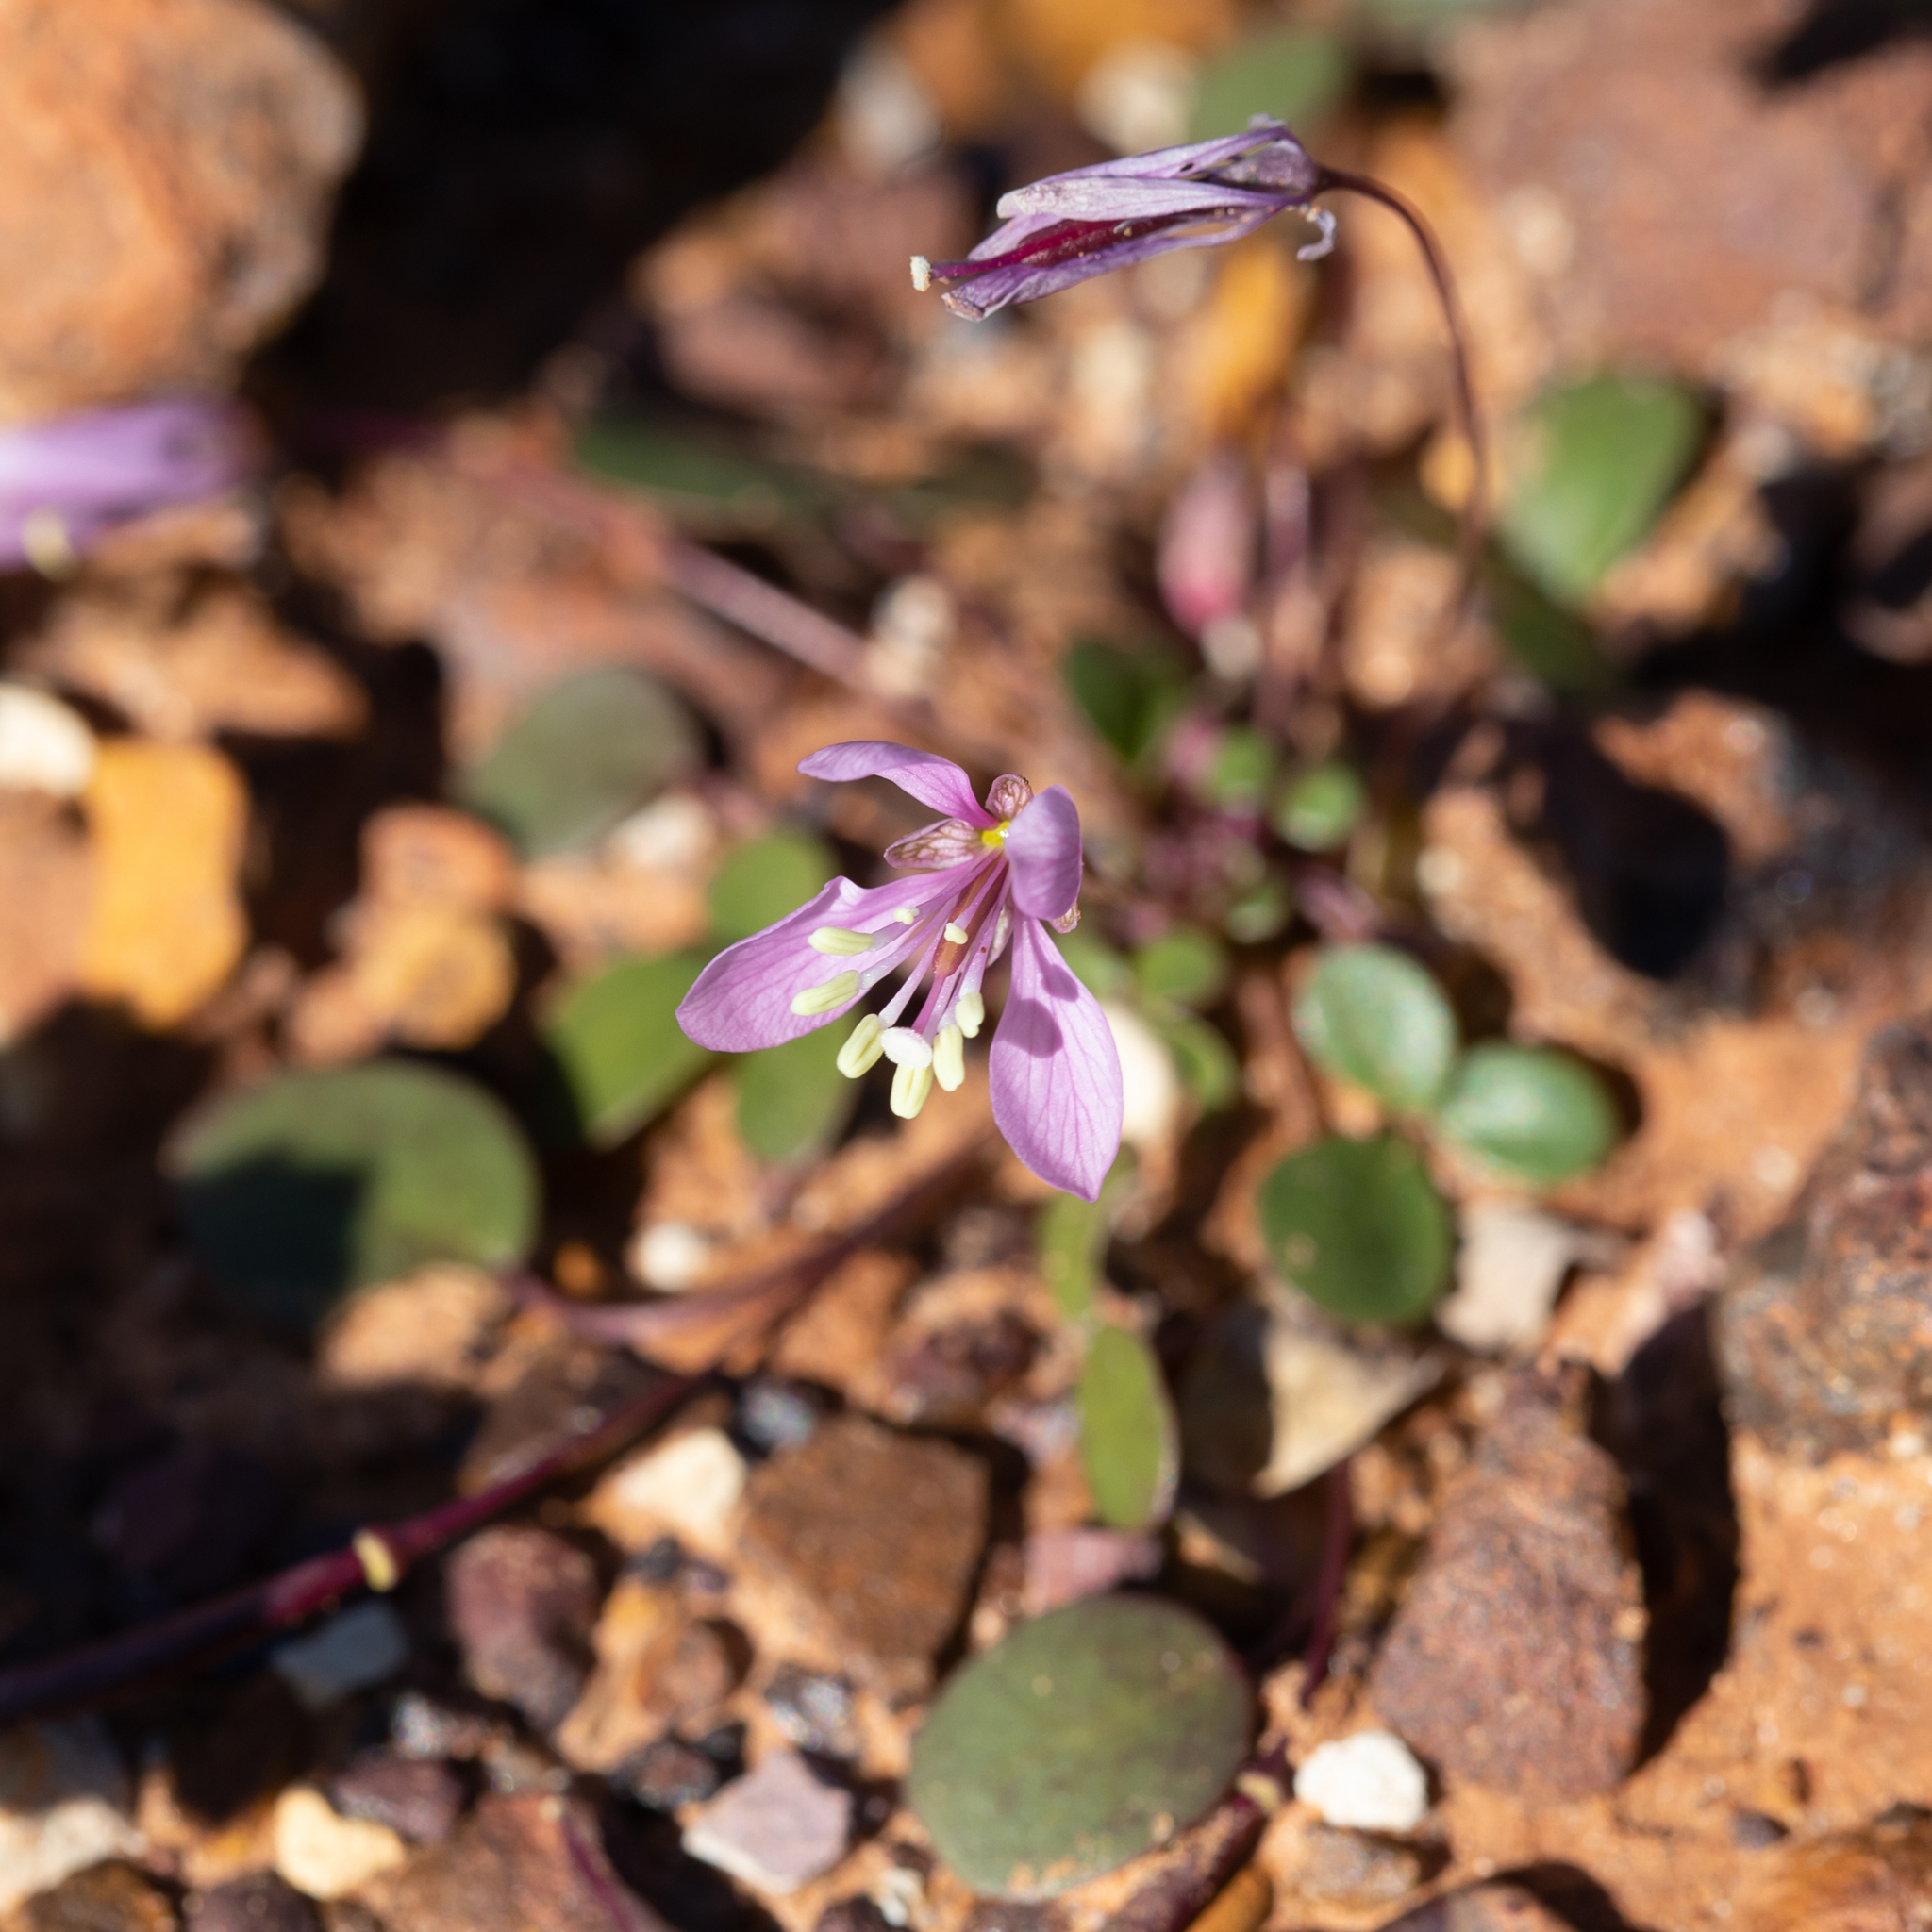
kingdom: Plantae
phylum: Tracheophyta
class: Magnoliopsida
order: Brassicales
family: Cleomaceae
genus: Areocleome
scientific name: Areocleome oxalidea
